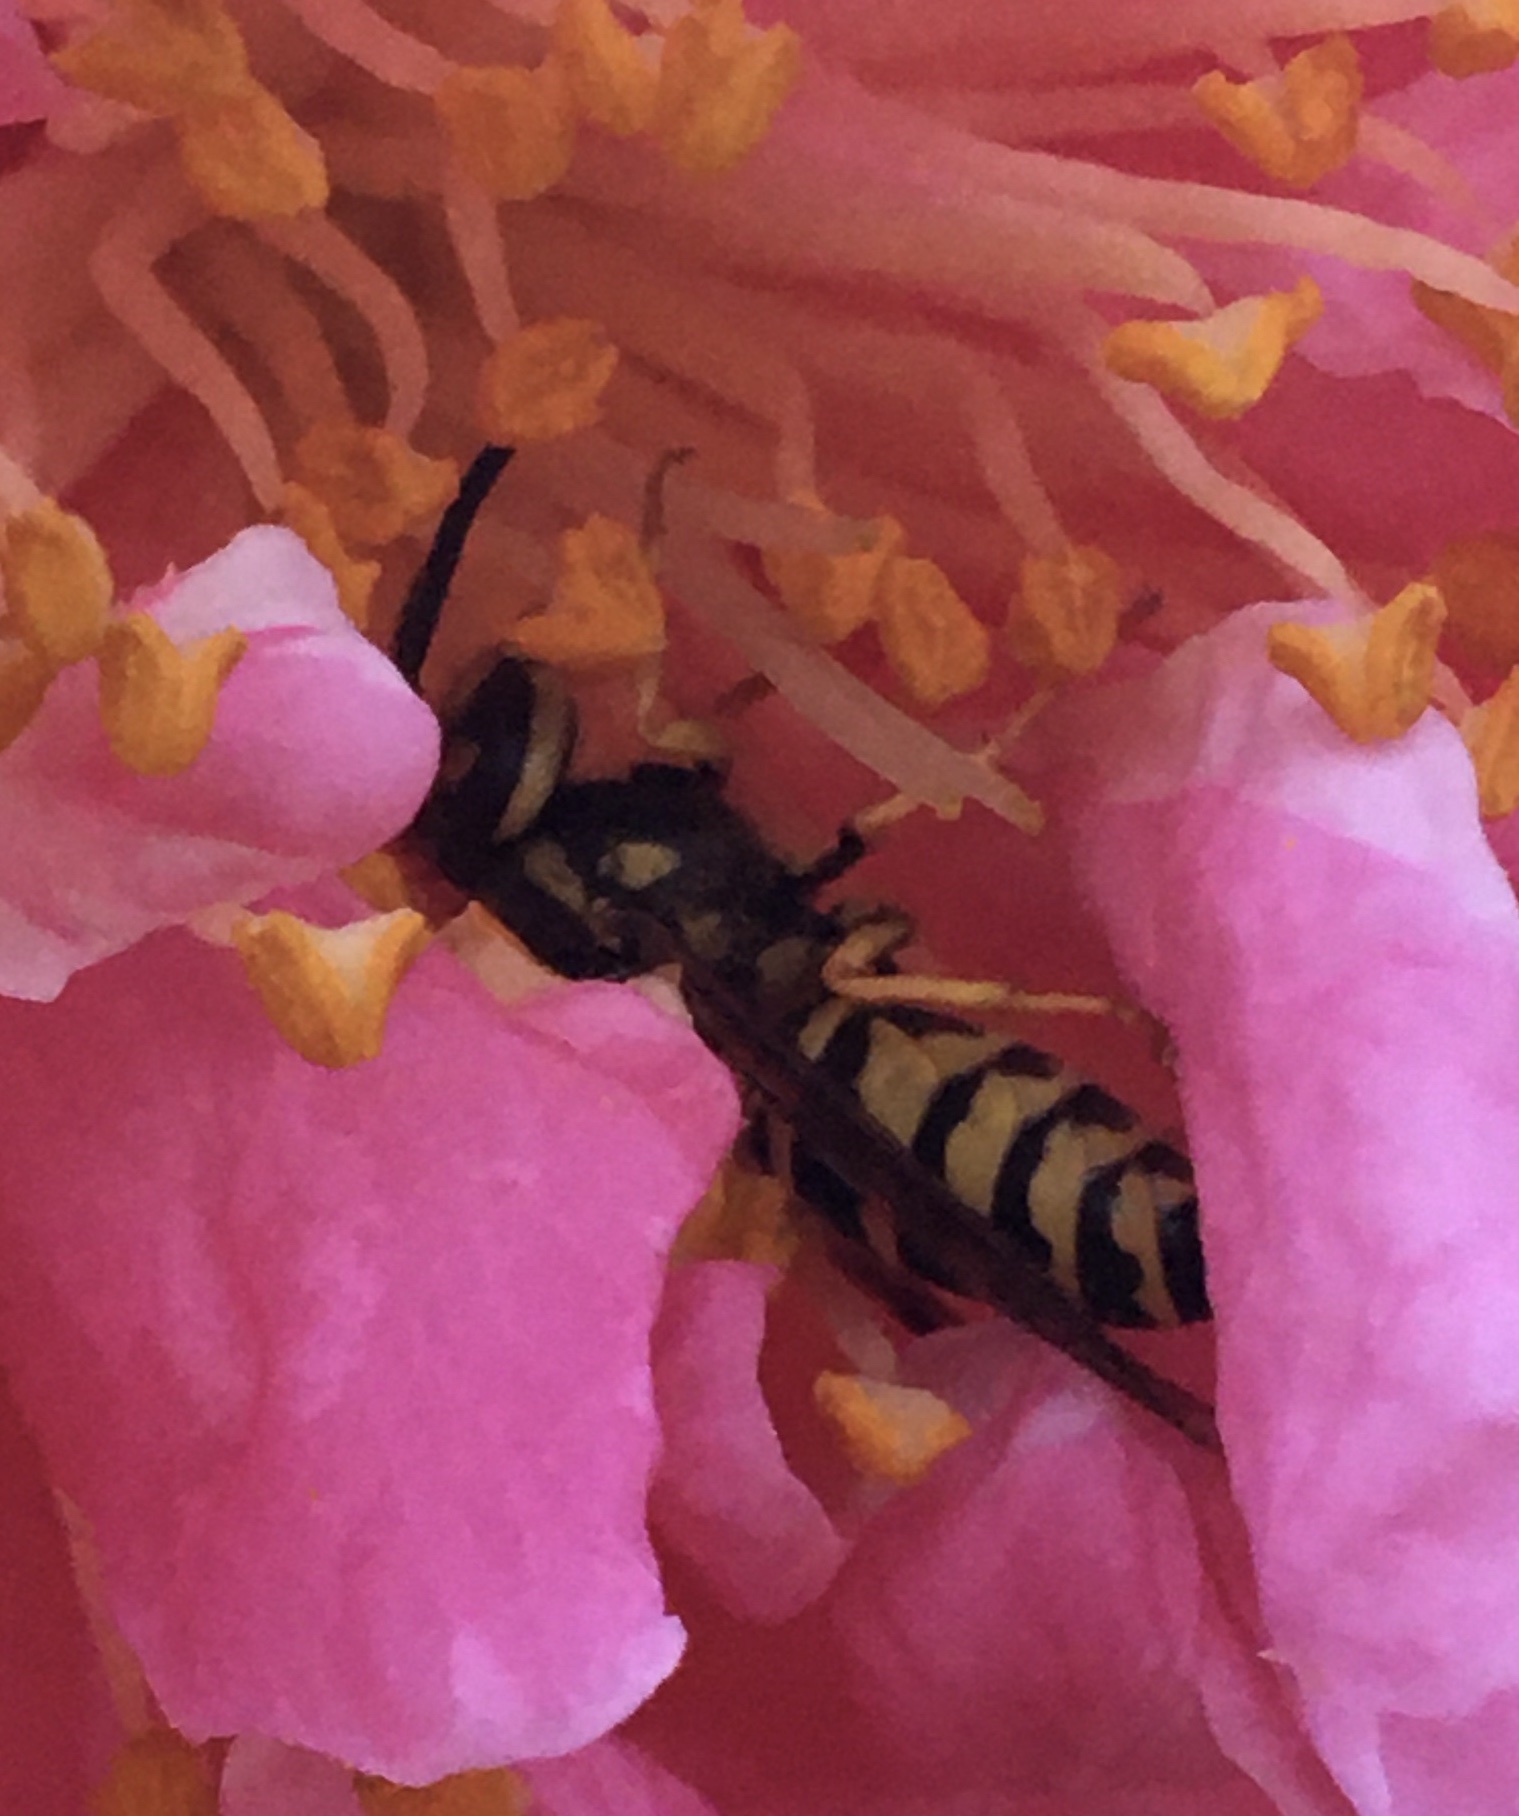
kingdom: Animalia
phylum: Arthropoda
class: Insecta
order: Hymenoptera
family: Vespidae
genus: Vespula
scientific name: Vespula maculifrons
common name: Eastern yellowjacket
